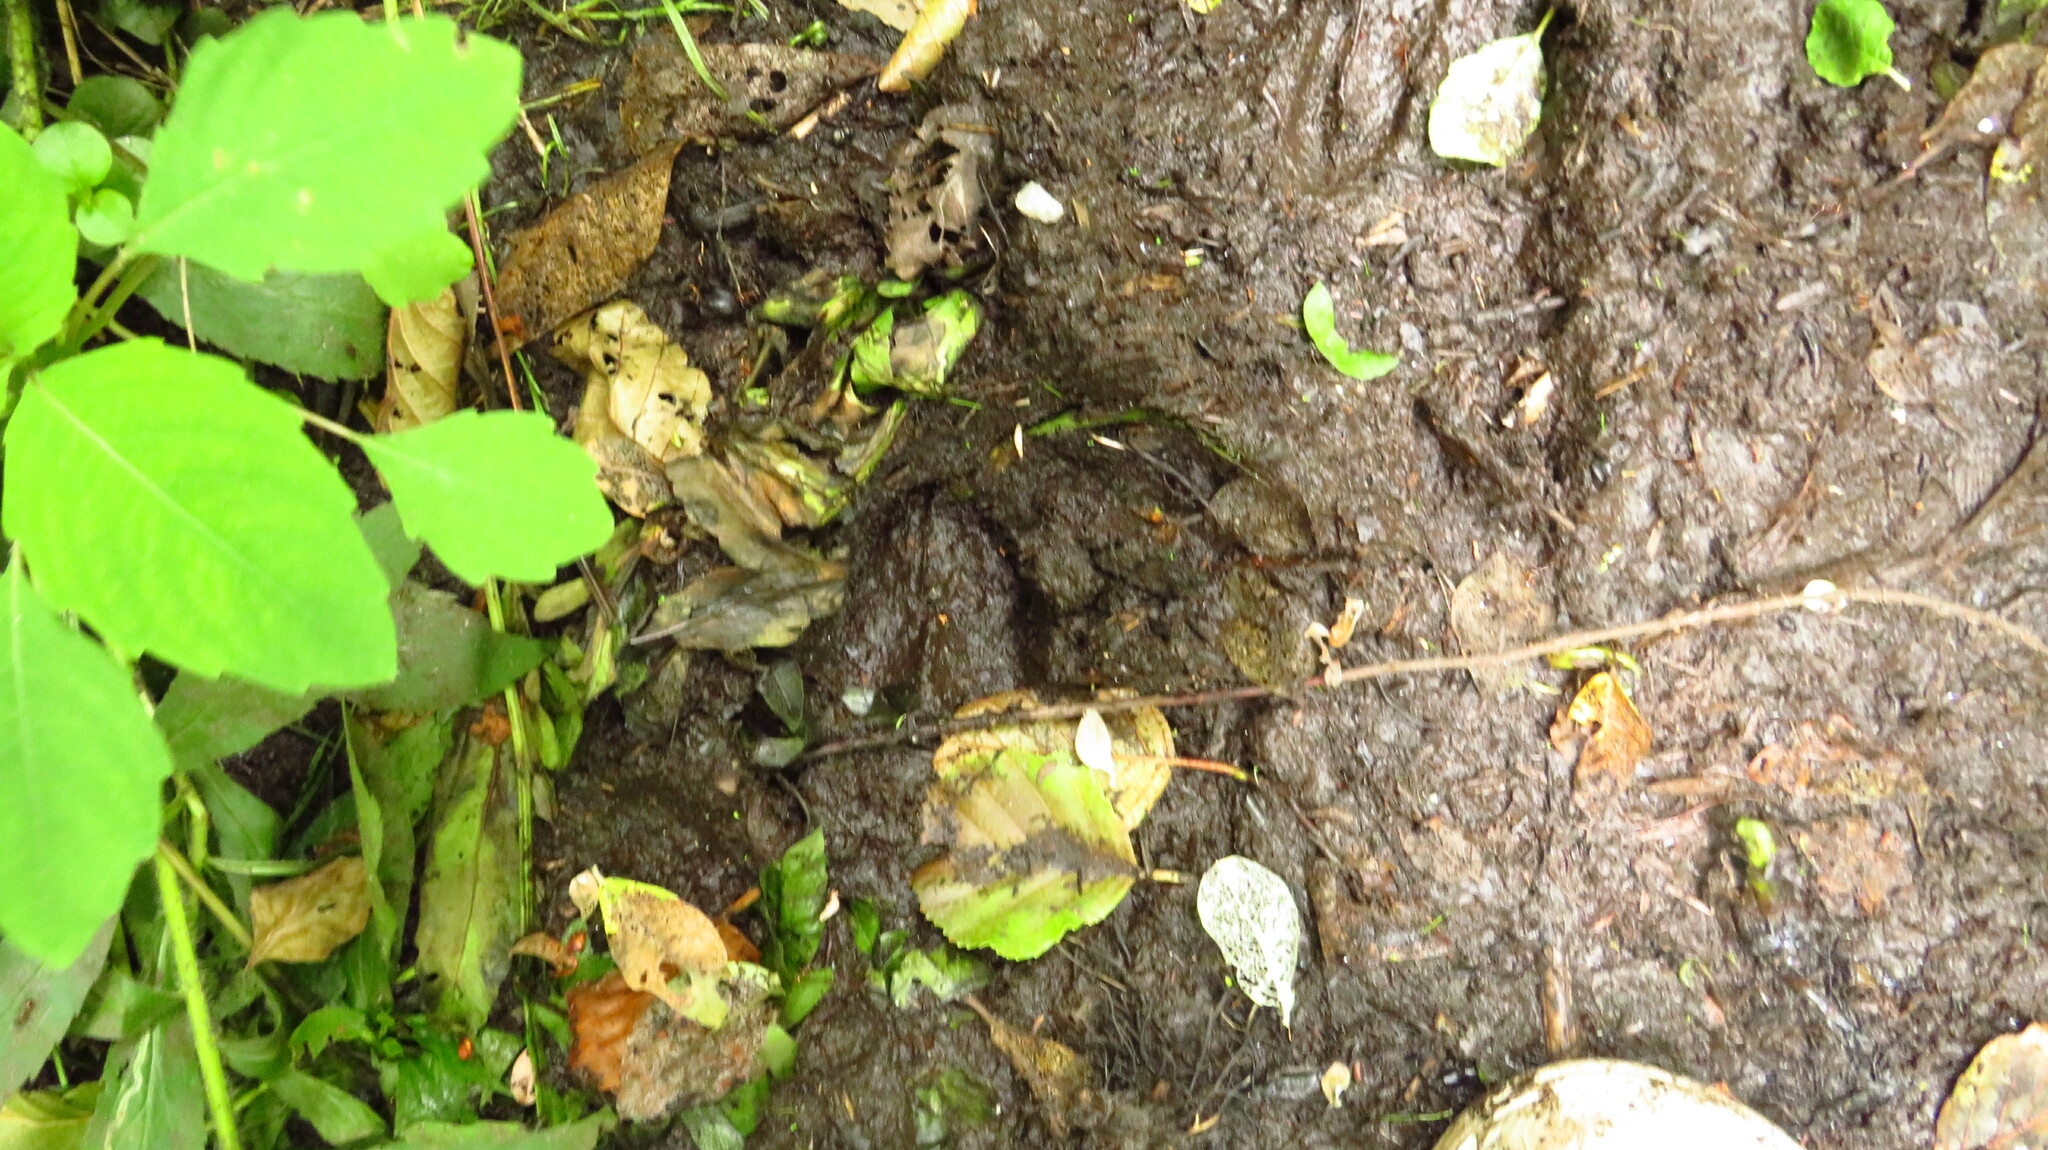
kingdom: Animalia
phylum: Chordata
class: Mammalia
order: Artiodactyla
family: Cervidae
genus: Odocoileus
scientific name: Odocoileus virginianus
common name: White-tailed deer
